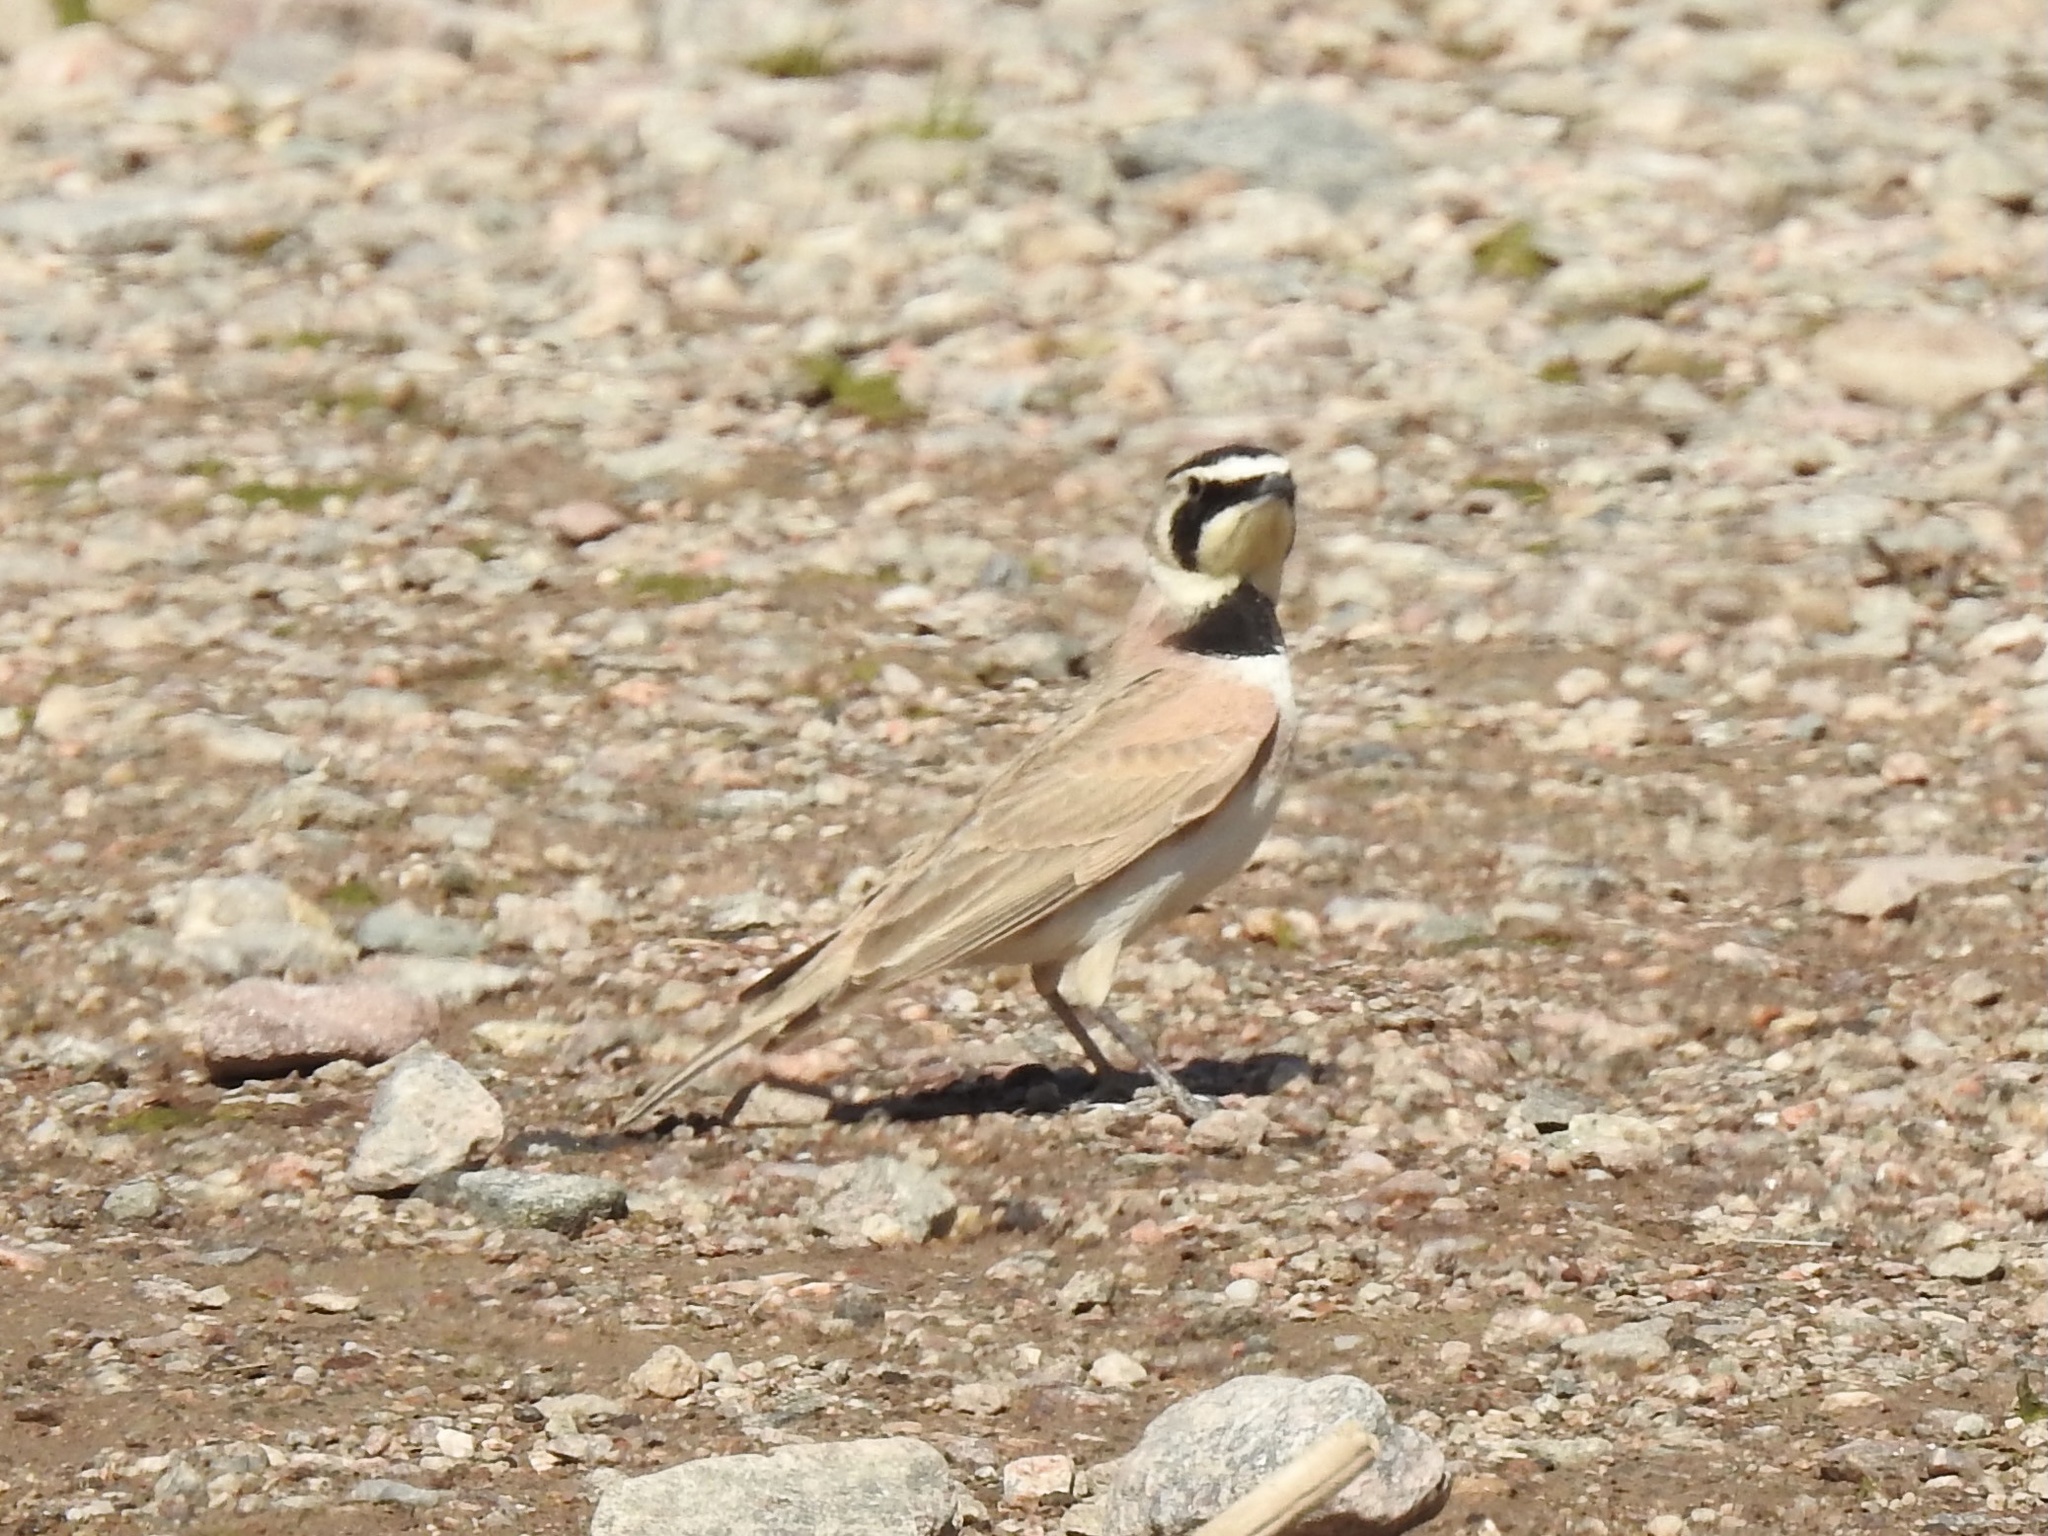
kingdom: Animalia
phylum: Chordata
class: Aves
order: Passeriformes
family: Alaudidae
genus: Eremophila
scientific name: Eremophila alpestris
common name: Horned lark
